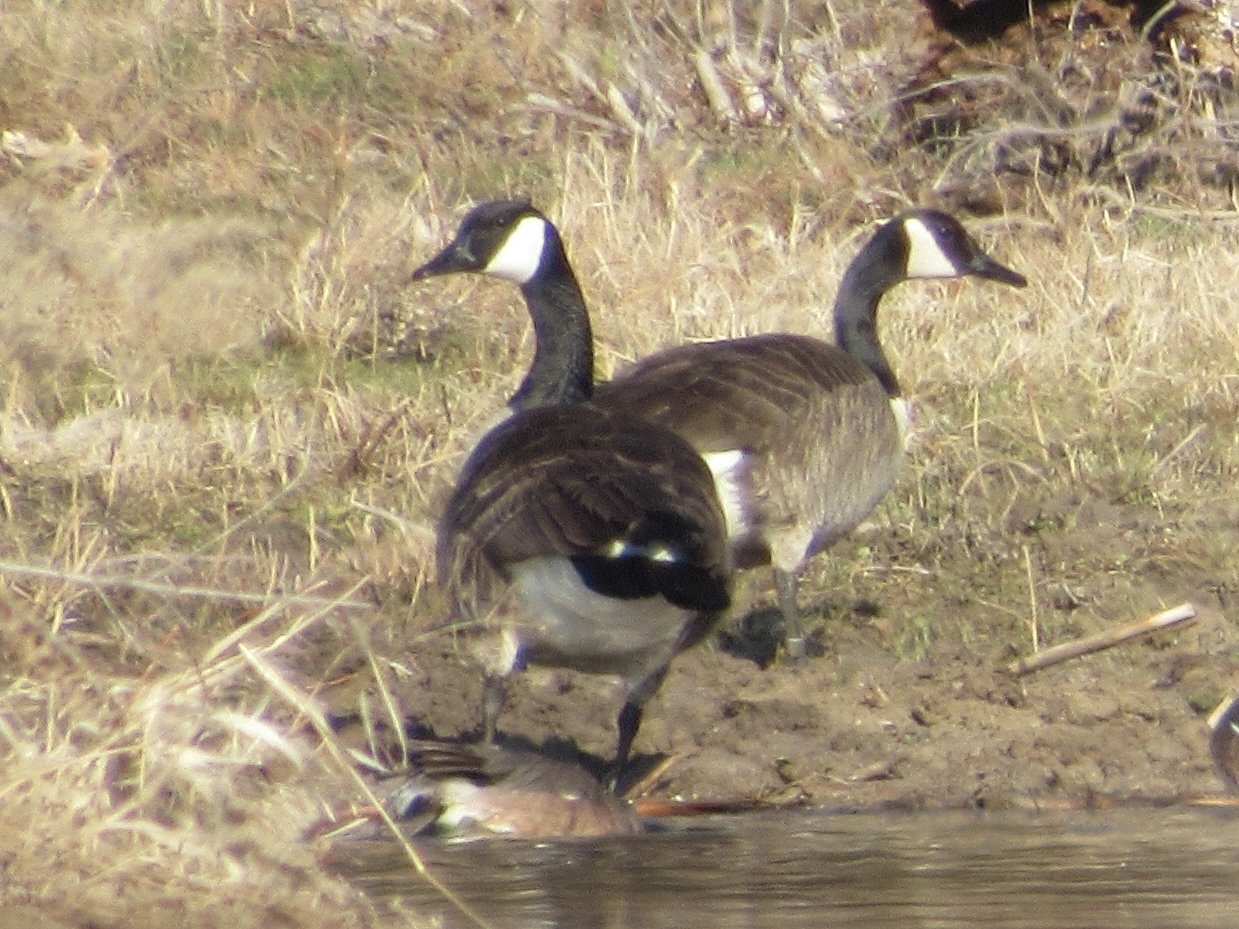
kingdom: Animalia
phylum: Chordata
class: Aves
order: Anseriformes
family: Anatidae
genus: Branta
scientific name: Branta canadensis
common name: Canada goose
